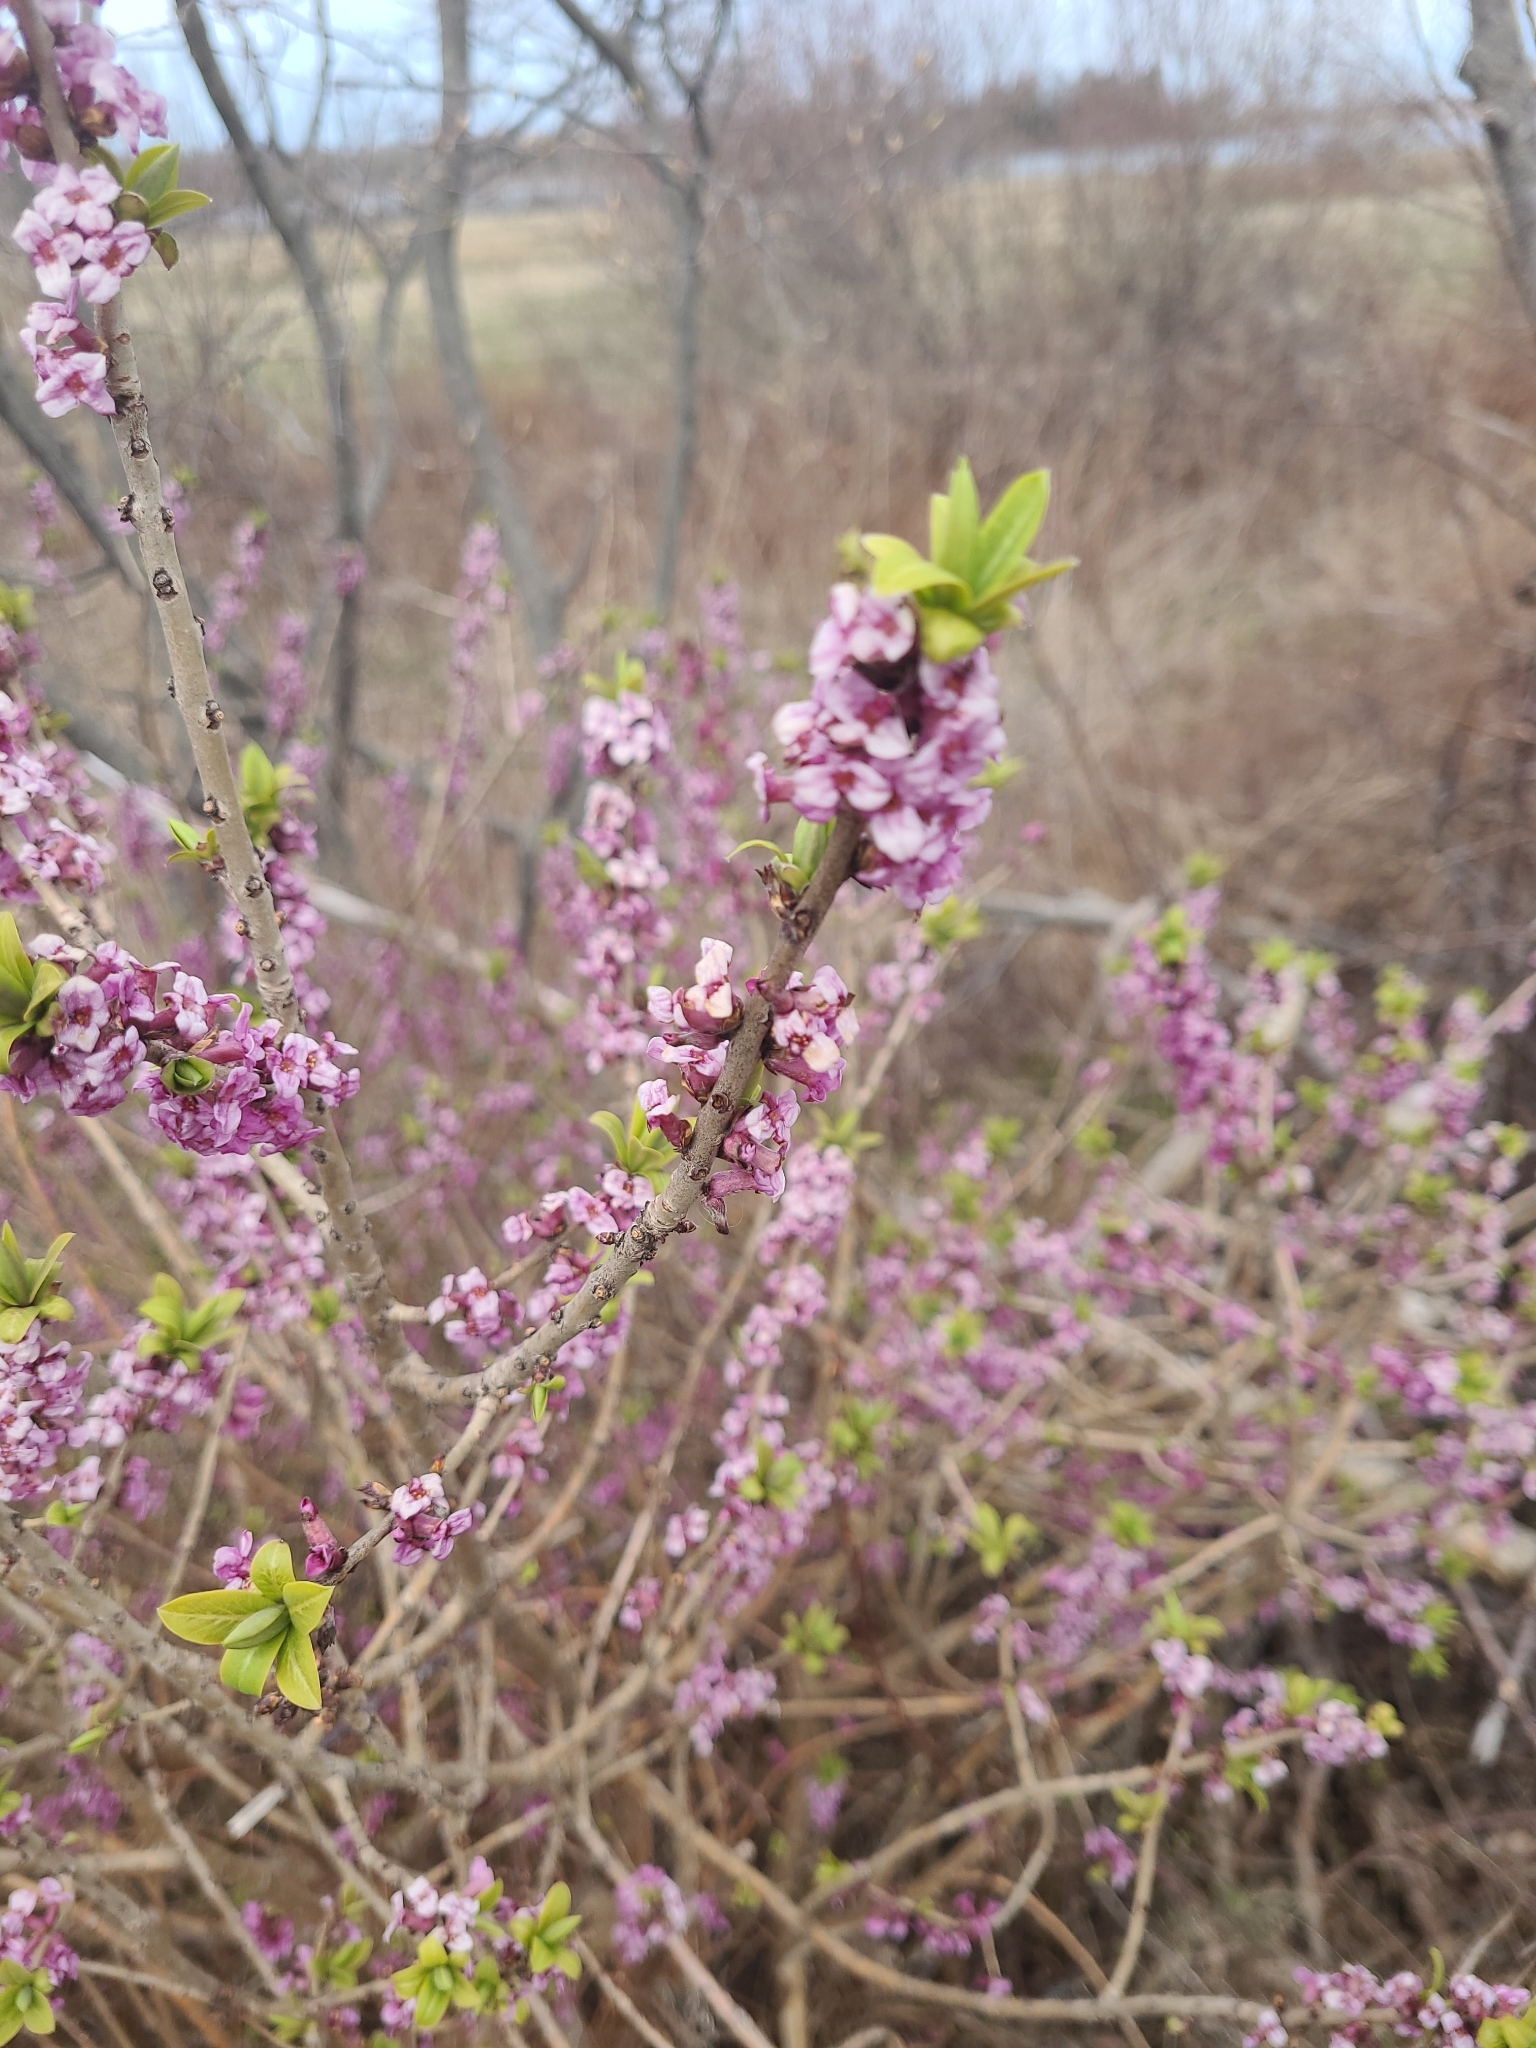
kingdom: Plantae
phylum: Tracheophyta
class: Magnoliopsida
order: Malvales
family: Thymelaeaceae
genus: Daphne
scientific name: Daphne mezereum
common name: Mezereon
